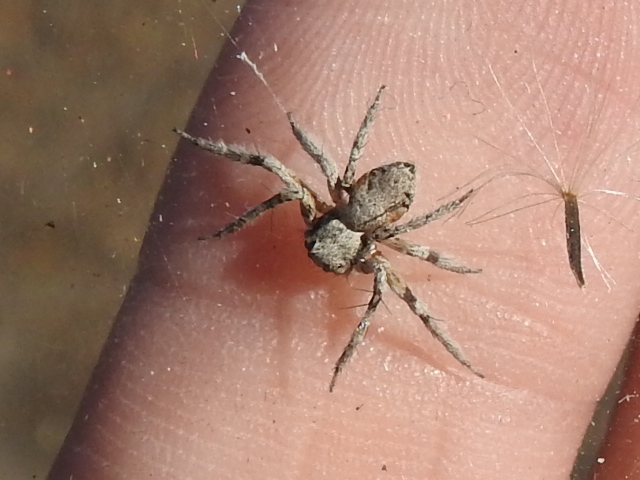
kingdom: Animalia
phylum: Arthropoda
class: Arachnida
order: Araneae
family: Oxyopidae
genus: Hamataliwa
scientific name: Hamataliwa grisea
